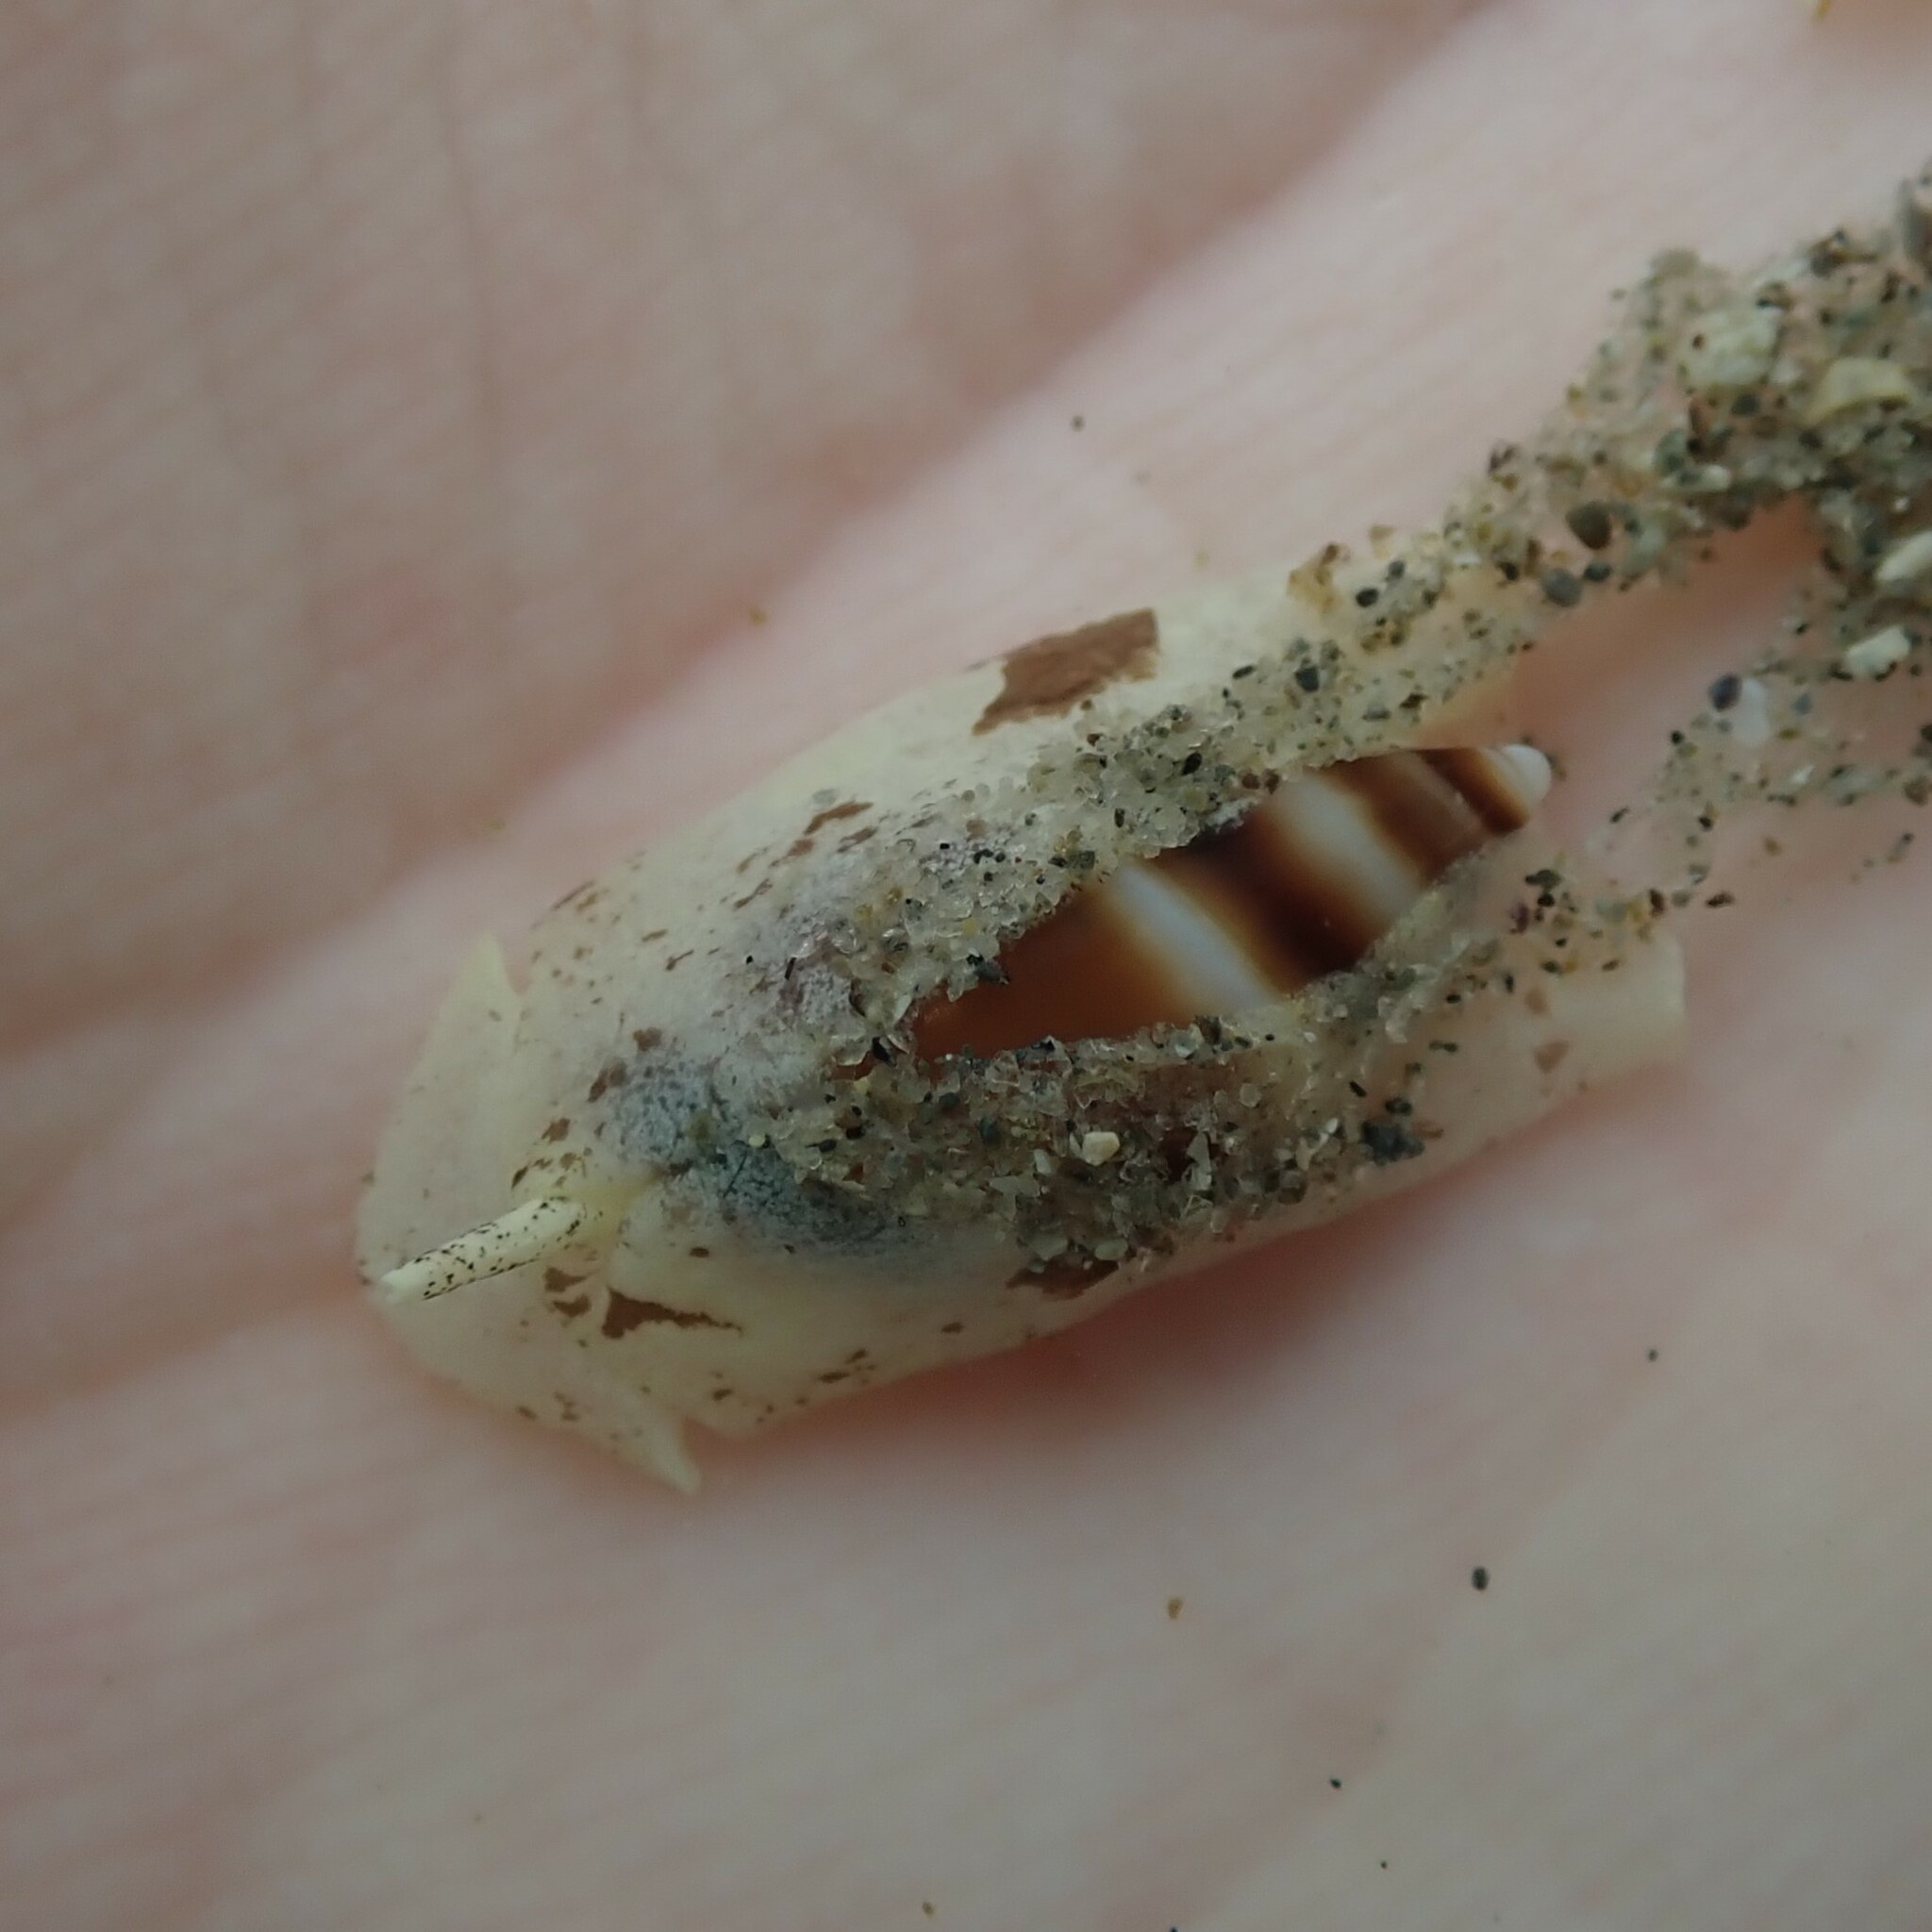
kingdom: Animalia
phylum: Mollusca
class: Gastropoda
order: Neogastropoda
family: Ancillariidae
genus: Amalda
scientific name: Amalda northlandica
